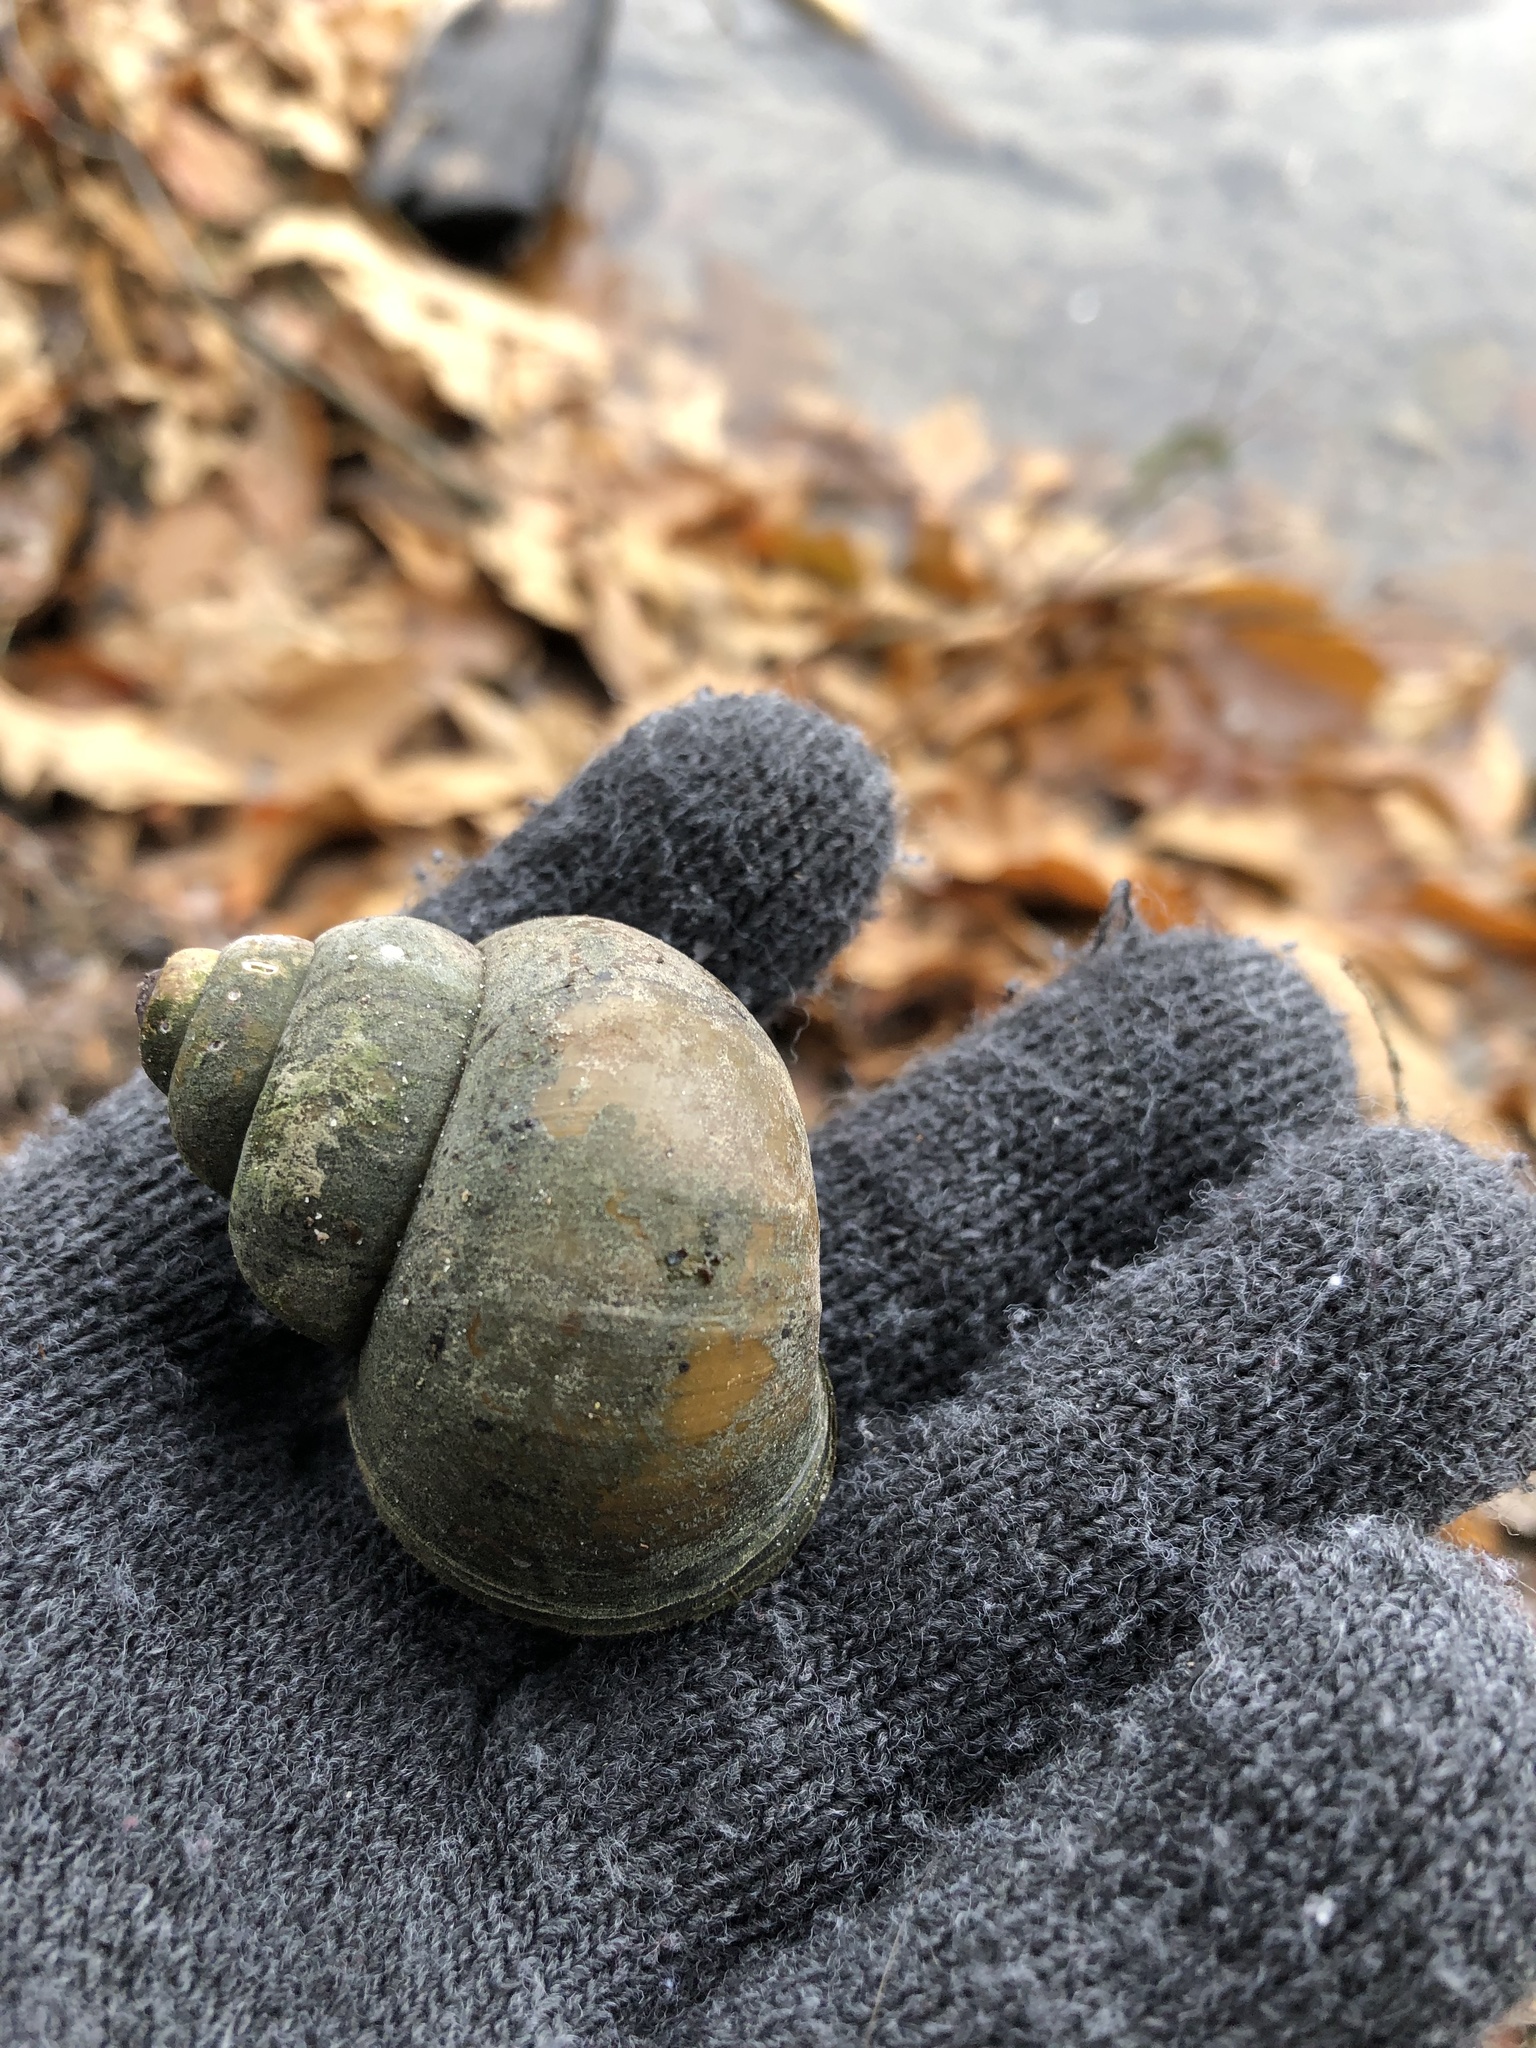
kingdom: Animalia
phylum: Mollusca
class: Gastropoda
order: Architaenioglossa
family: Viviparidae
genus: Cipangopaludina
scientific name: Cipangopaludina chinensis
